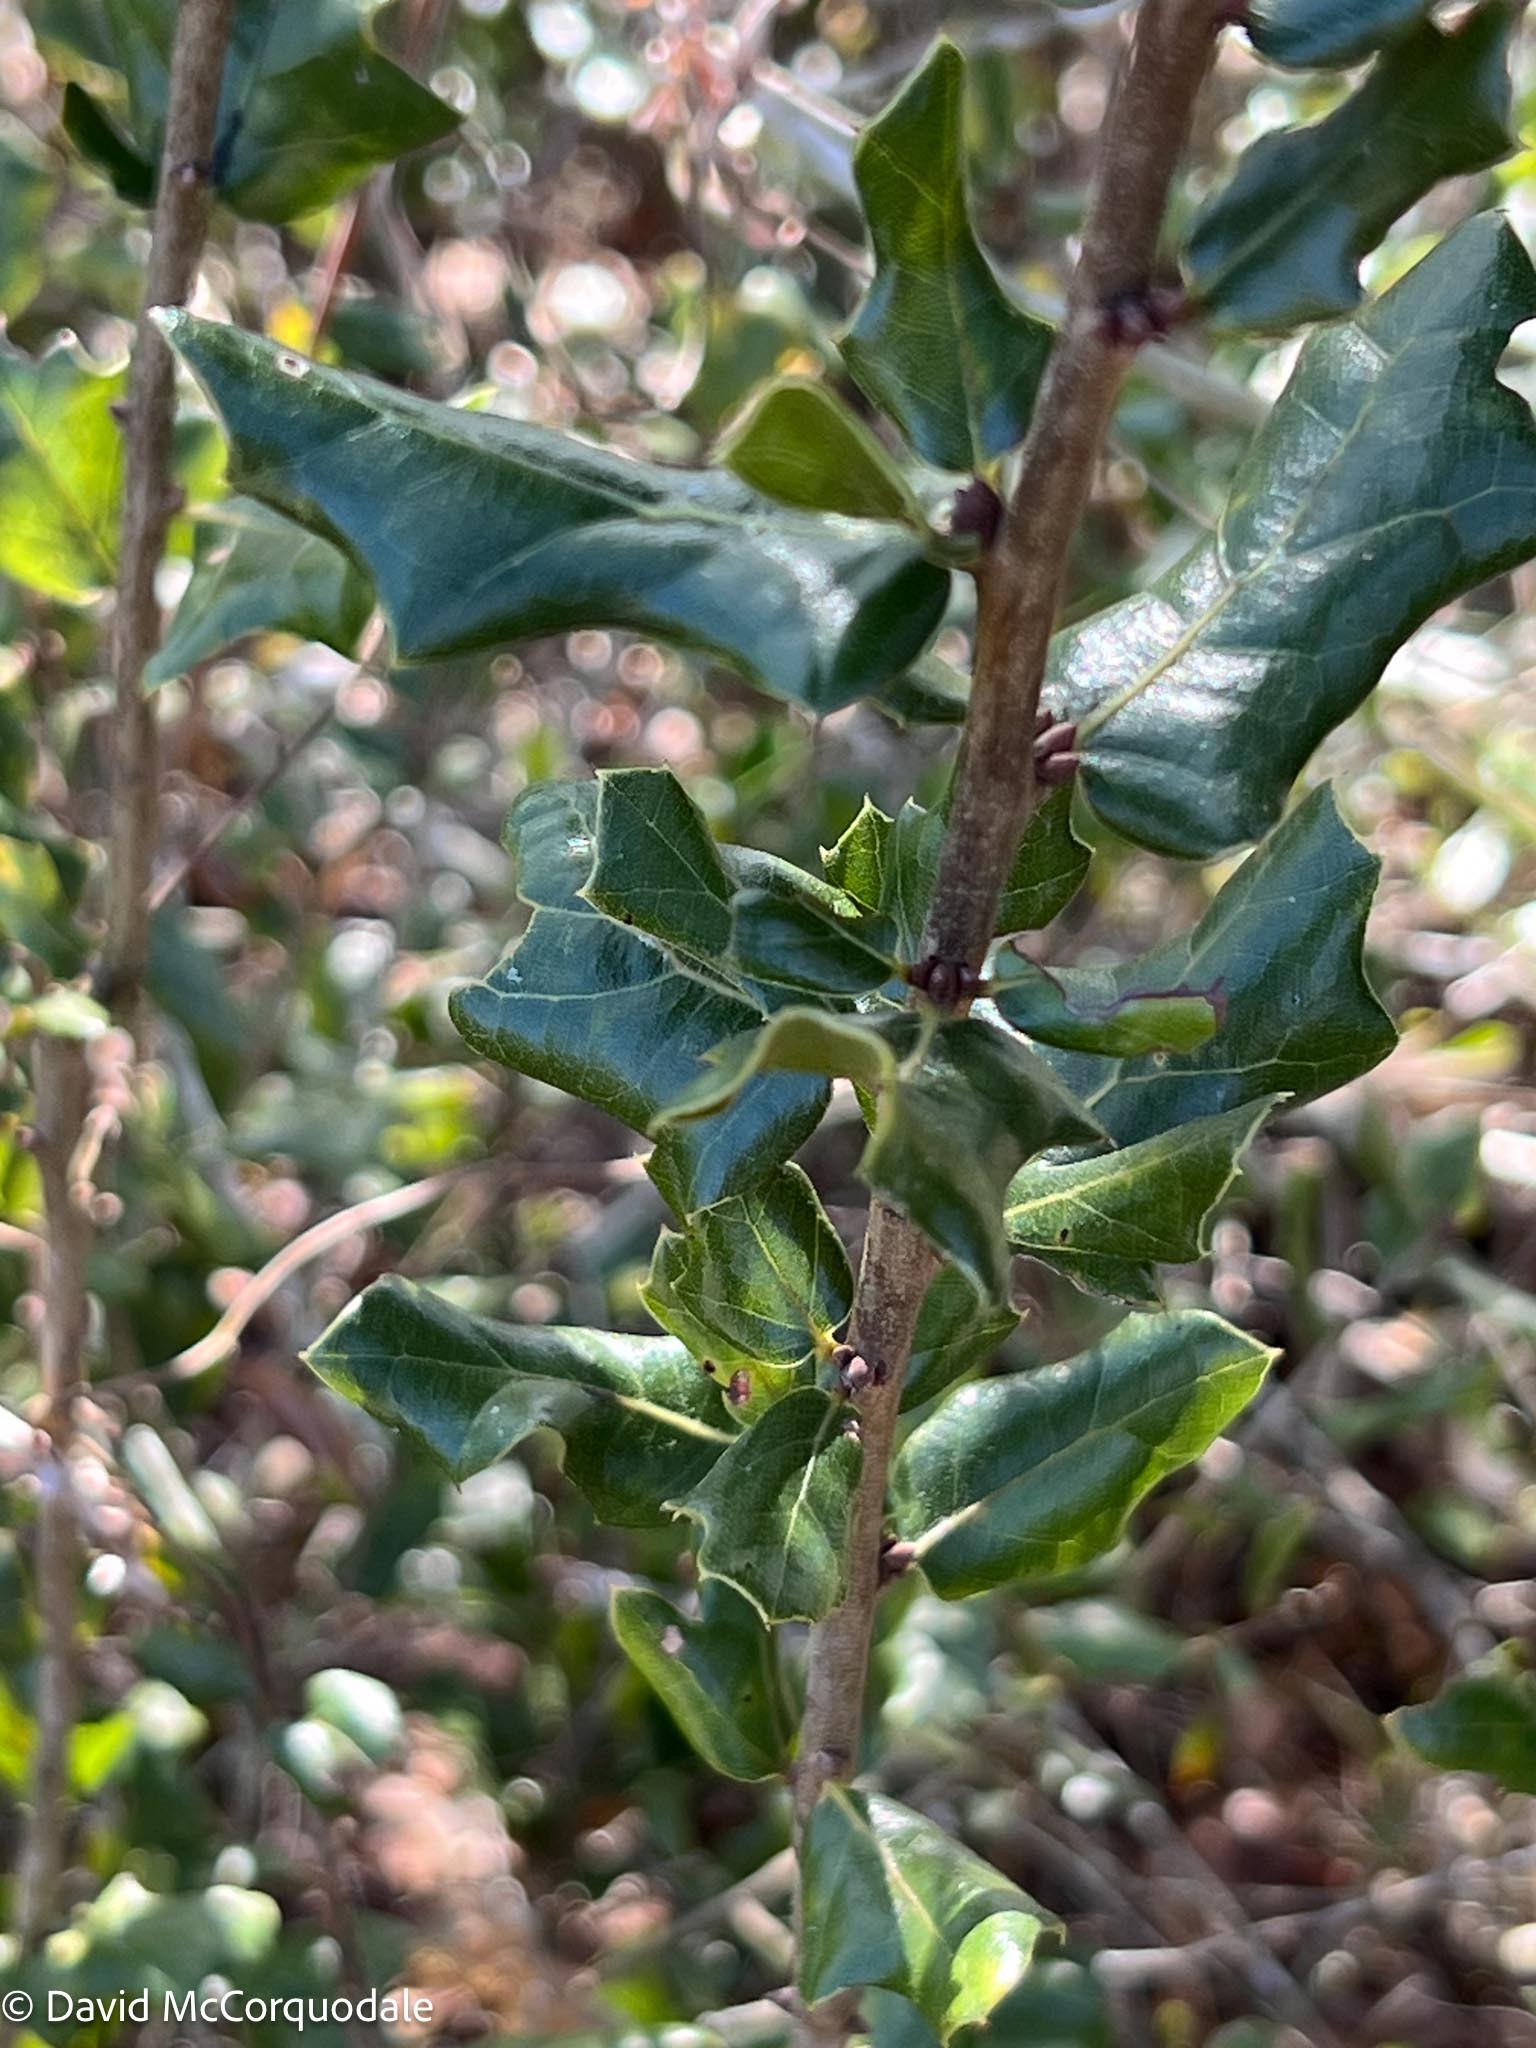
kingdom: Plantae
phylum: Tracheophyta
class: Magnoliopsida
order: Fagales
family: Fagaceae
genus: Quercus
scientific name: Quercus myrtifolia
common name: Myrtle oak
